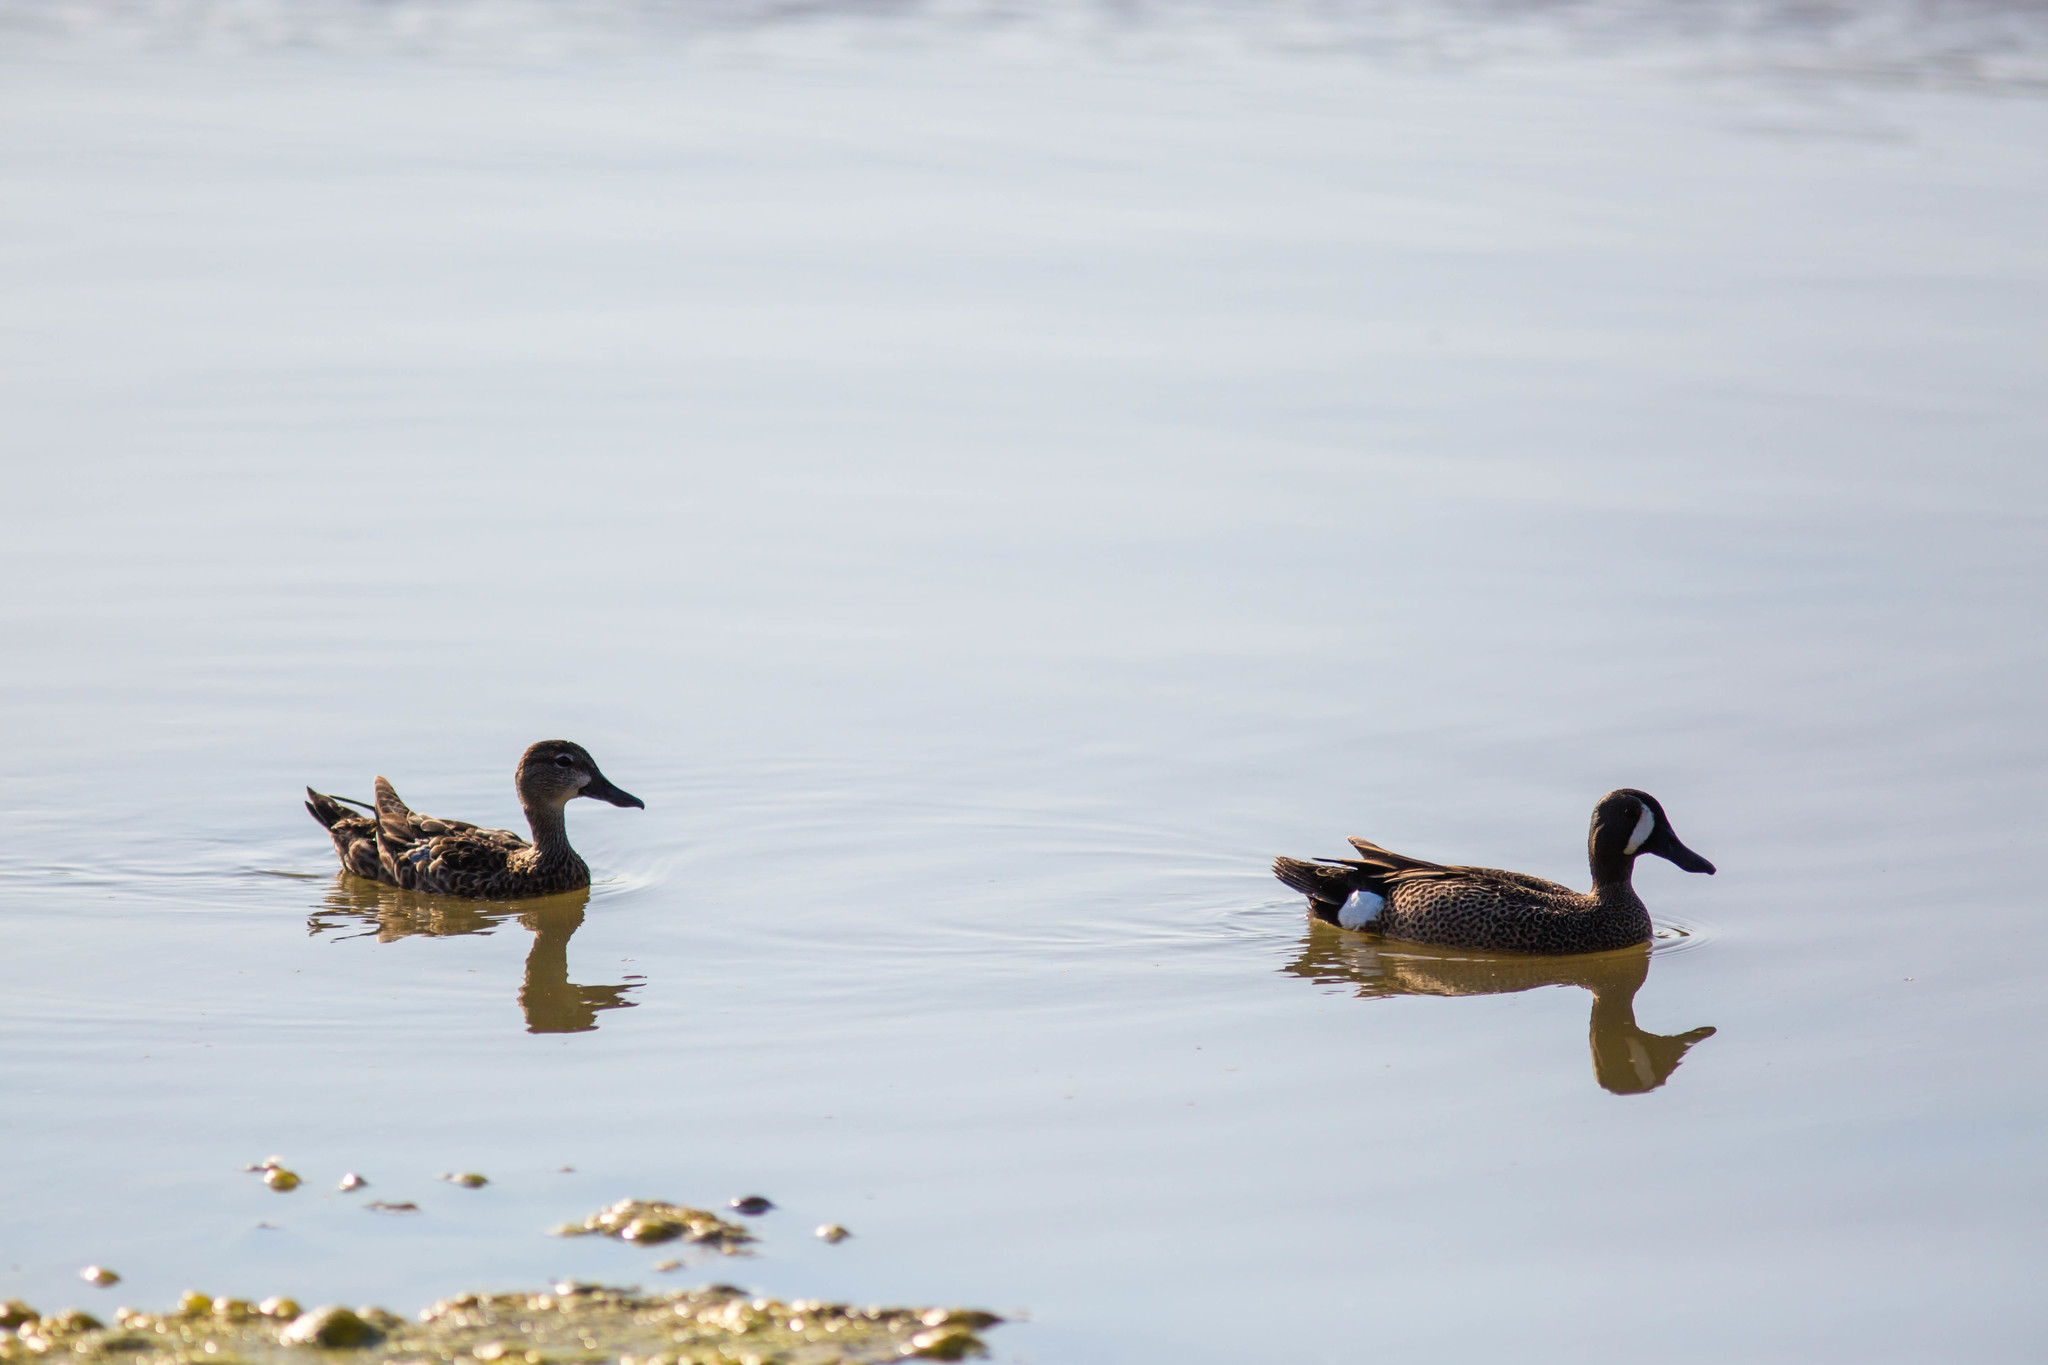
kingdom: Animalia
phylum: Chordata
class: Aves
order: Anseriformes
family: Anatidae
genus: Spatula
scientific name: Spatula discors
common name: Blue-winged teal
